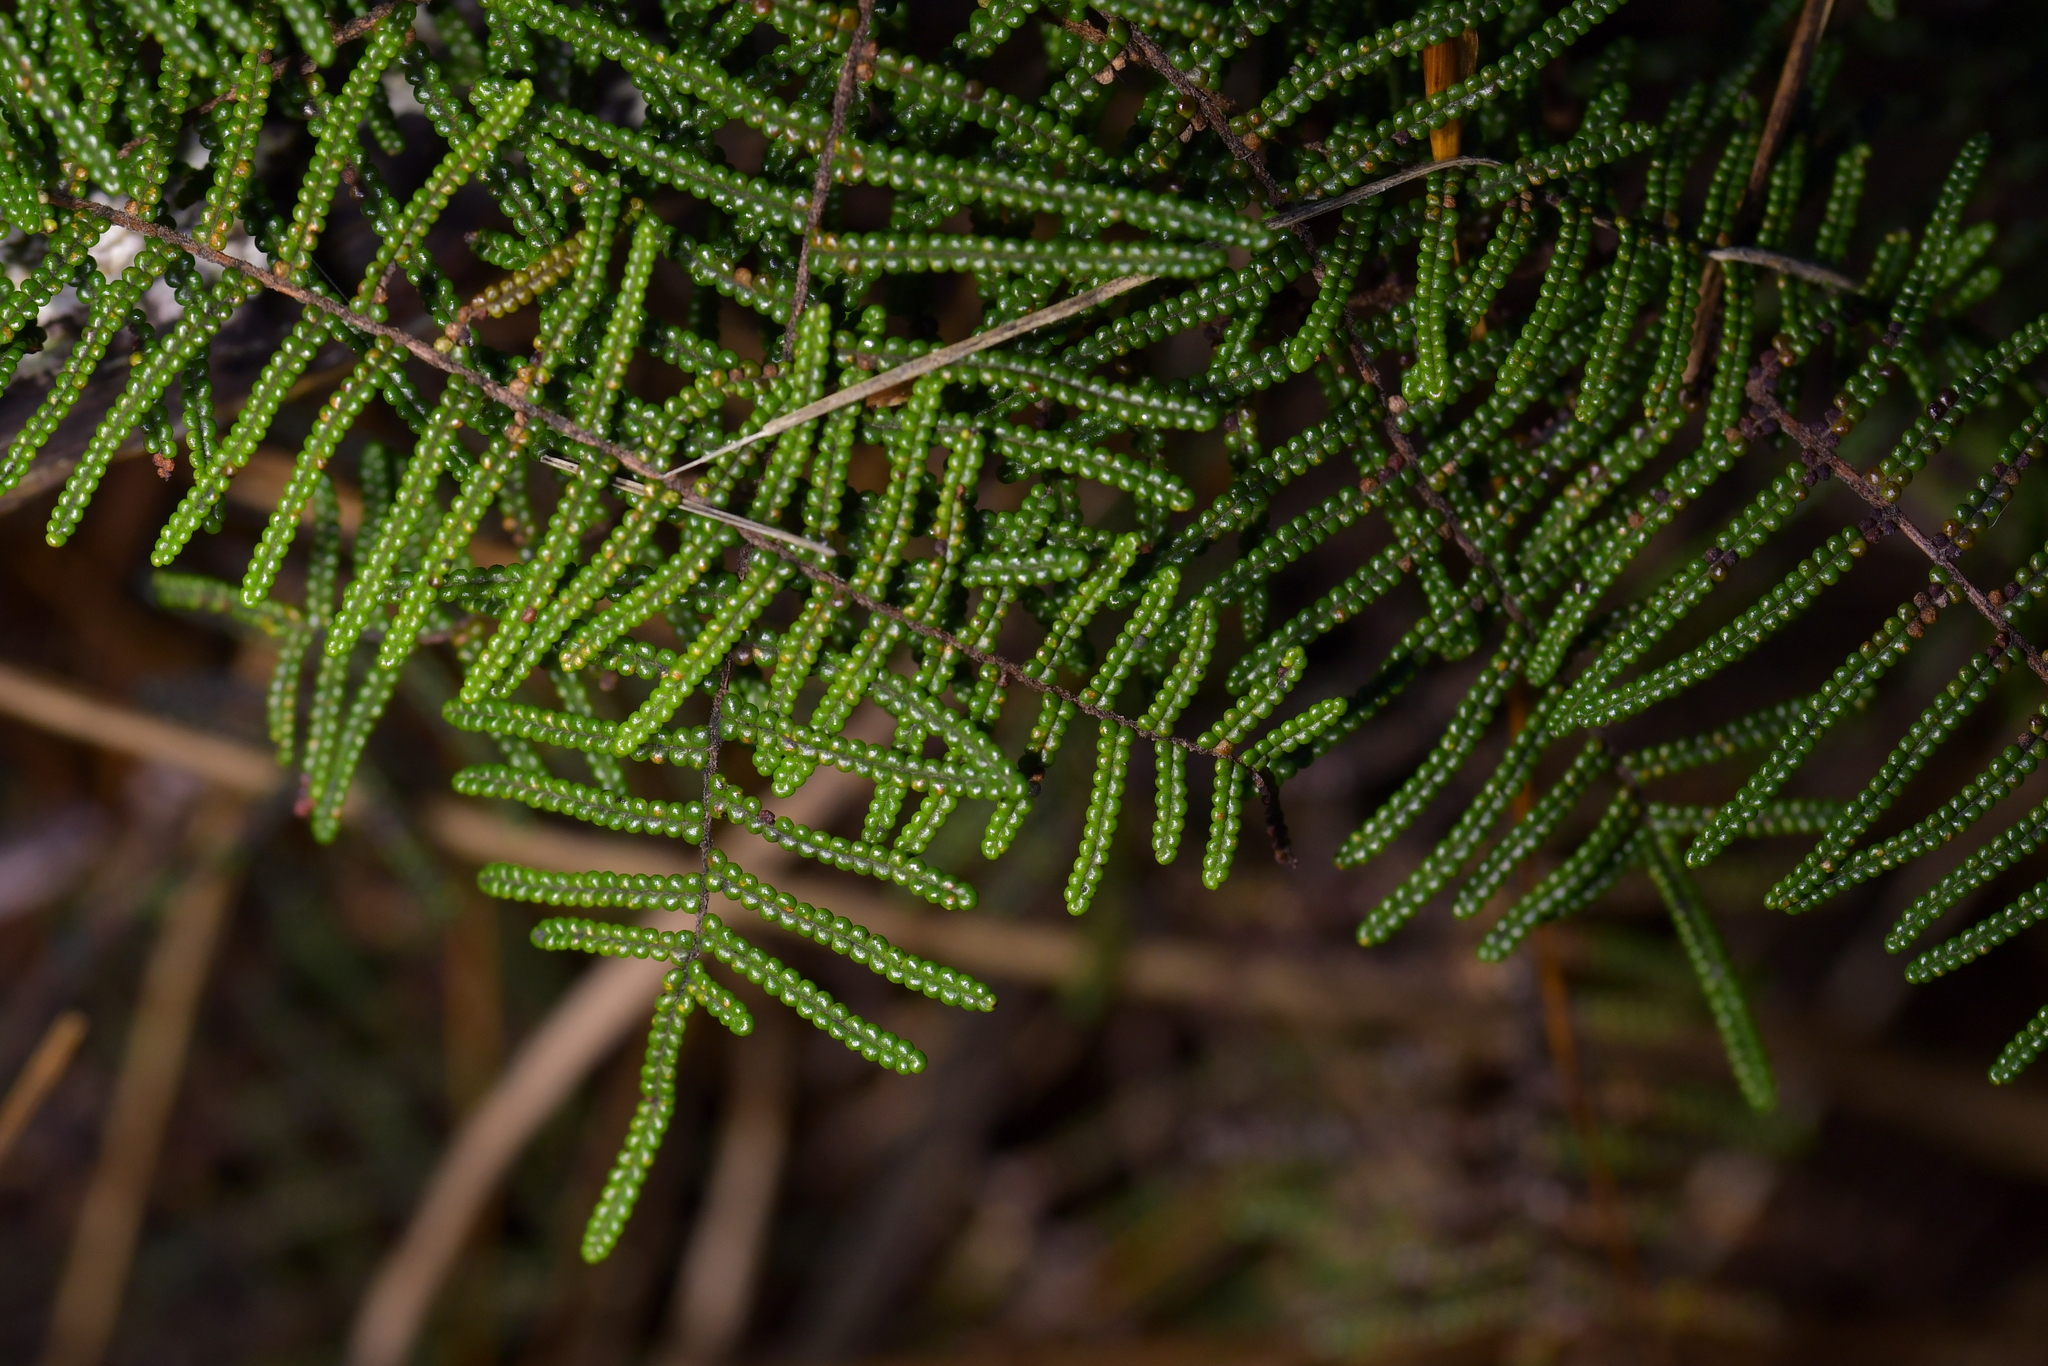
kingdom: Plantae
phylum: Tracheophyta
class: Polypodiopsida
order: Gleicheniales
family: Gleicheniaceae
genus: Gleichenia
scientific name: Gleichenia dicarpa
